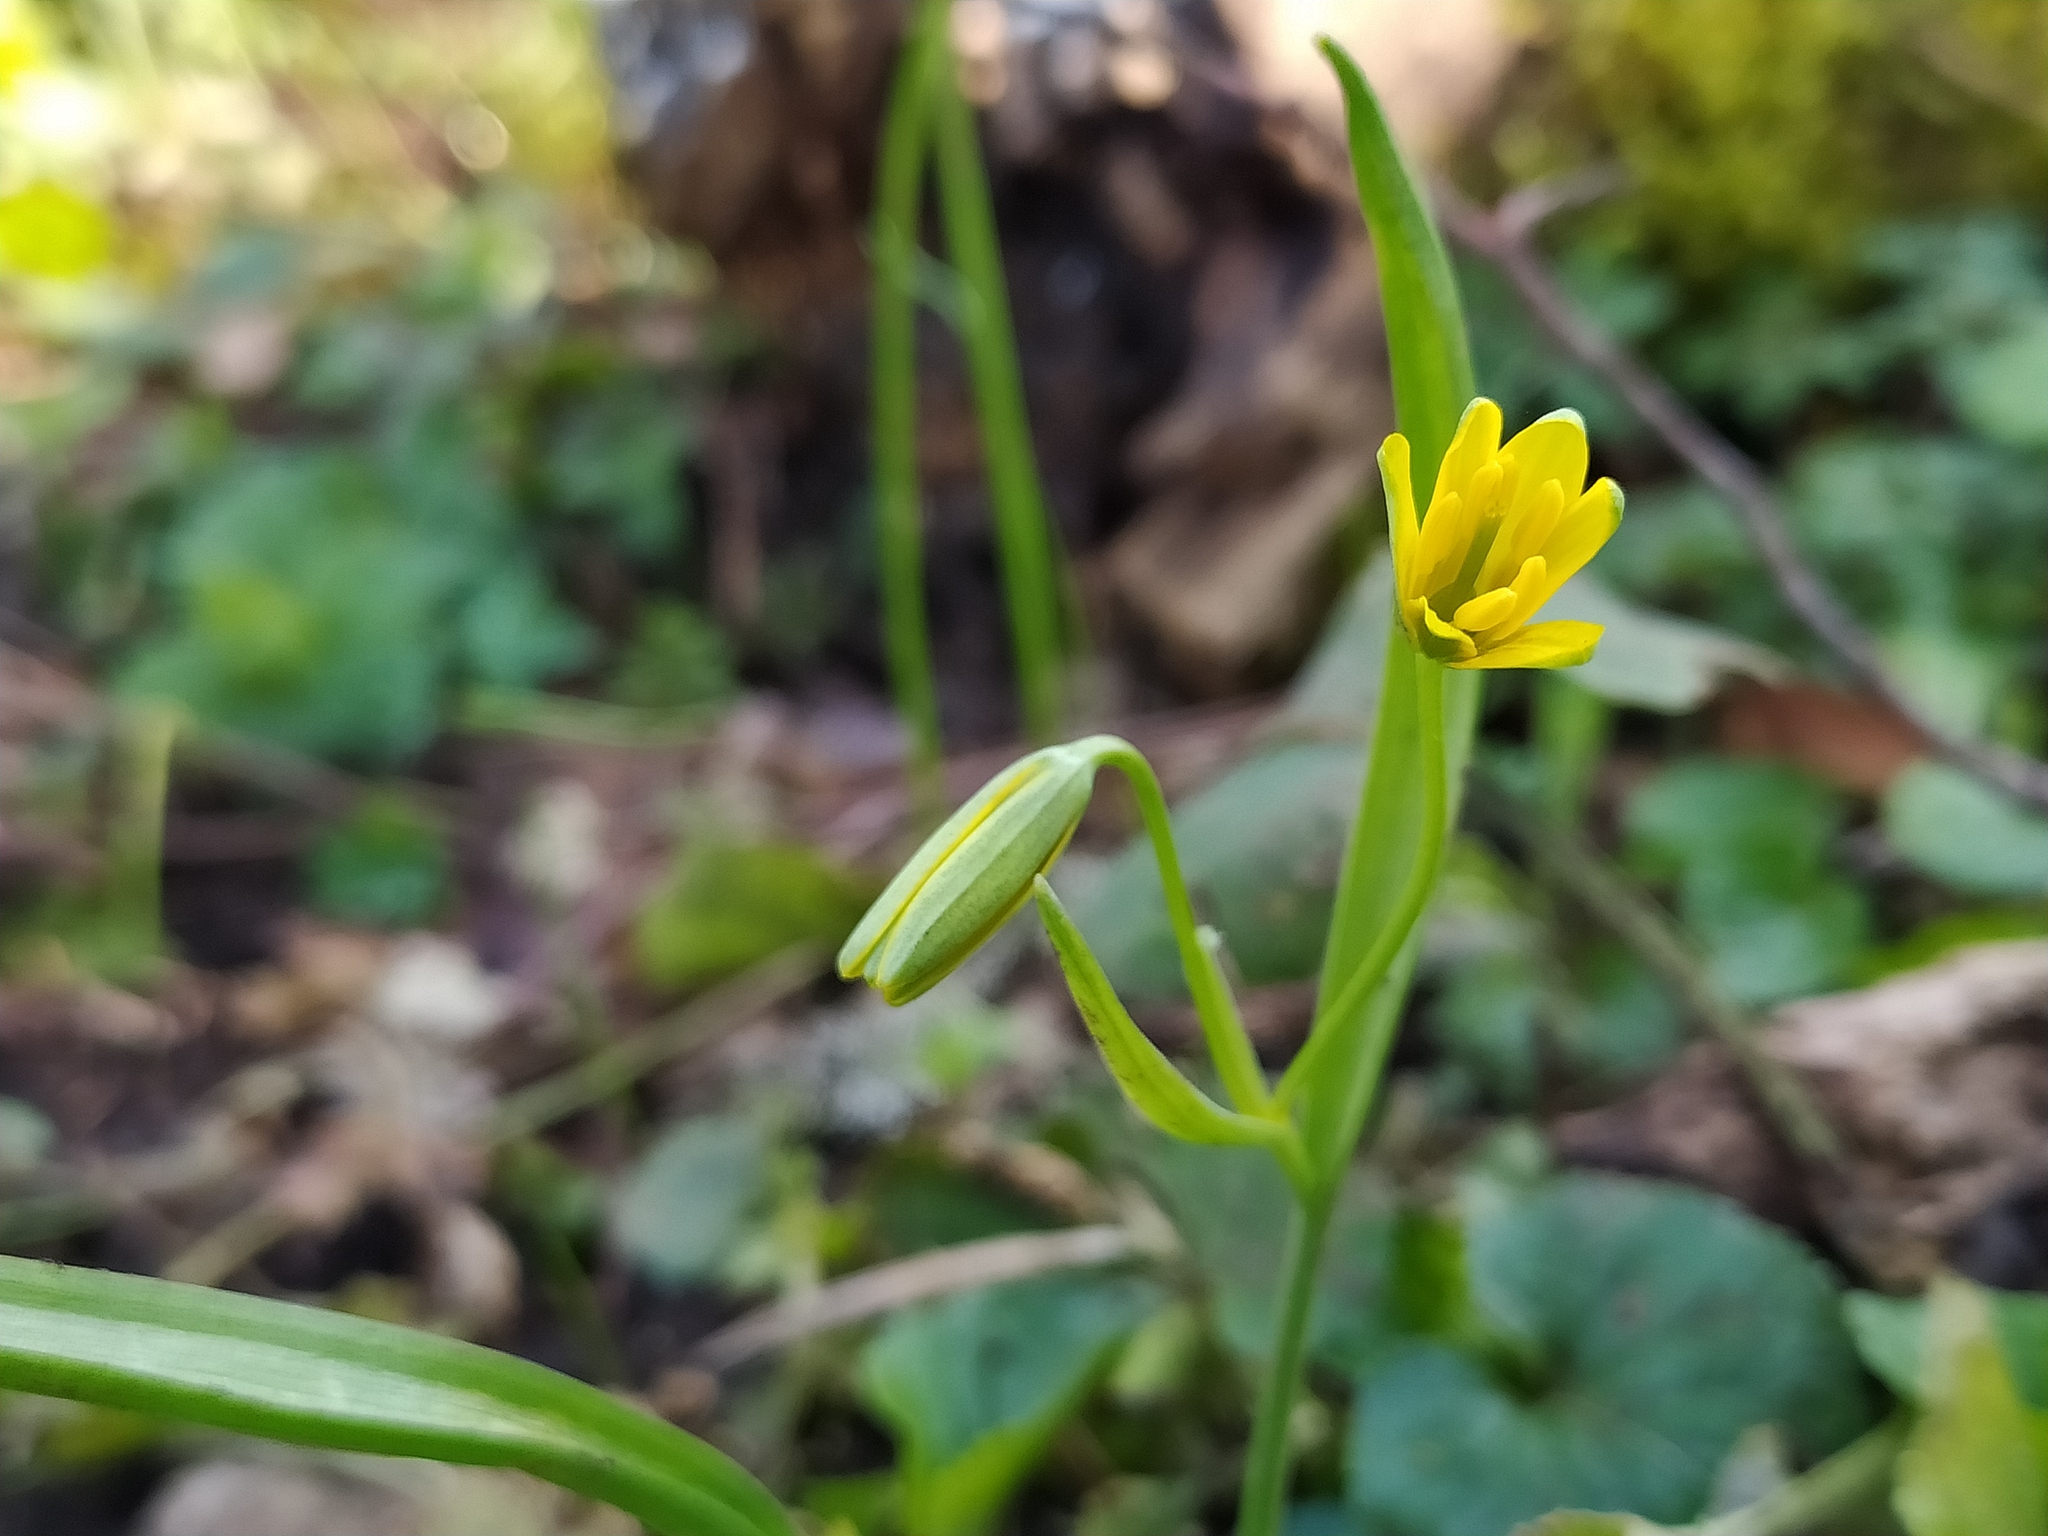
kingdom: Plantae
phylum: Tracheophyta
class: Liliopsida
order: Liliales
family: Liliaceae
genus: Gagea
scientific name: Gagea lutea
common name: Yellow star-of-bethlehem
